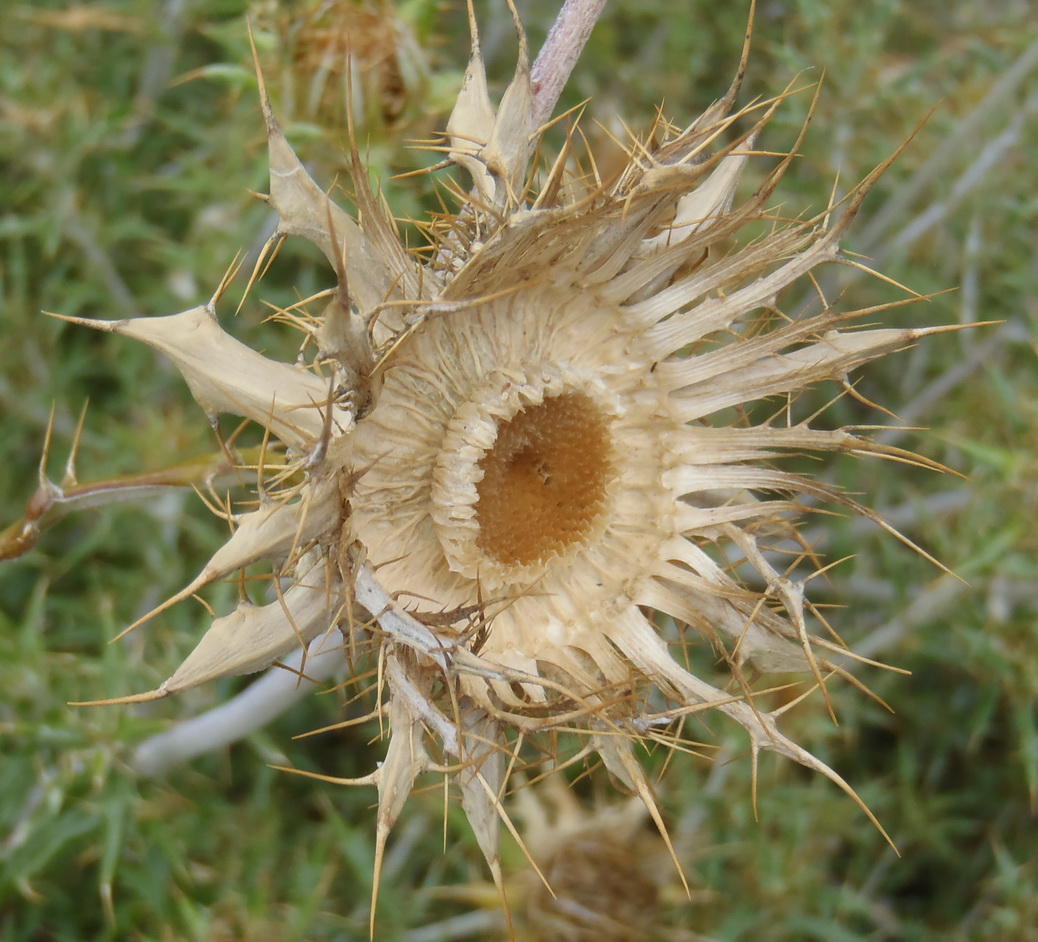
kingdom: Plantae
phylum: Tracheophyta
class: Magnoliopsida
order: Asterales
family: Asteraceae
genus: Berkheya
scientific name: Berkheya angustifolia
